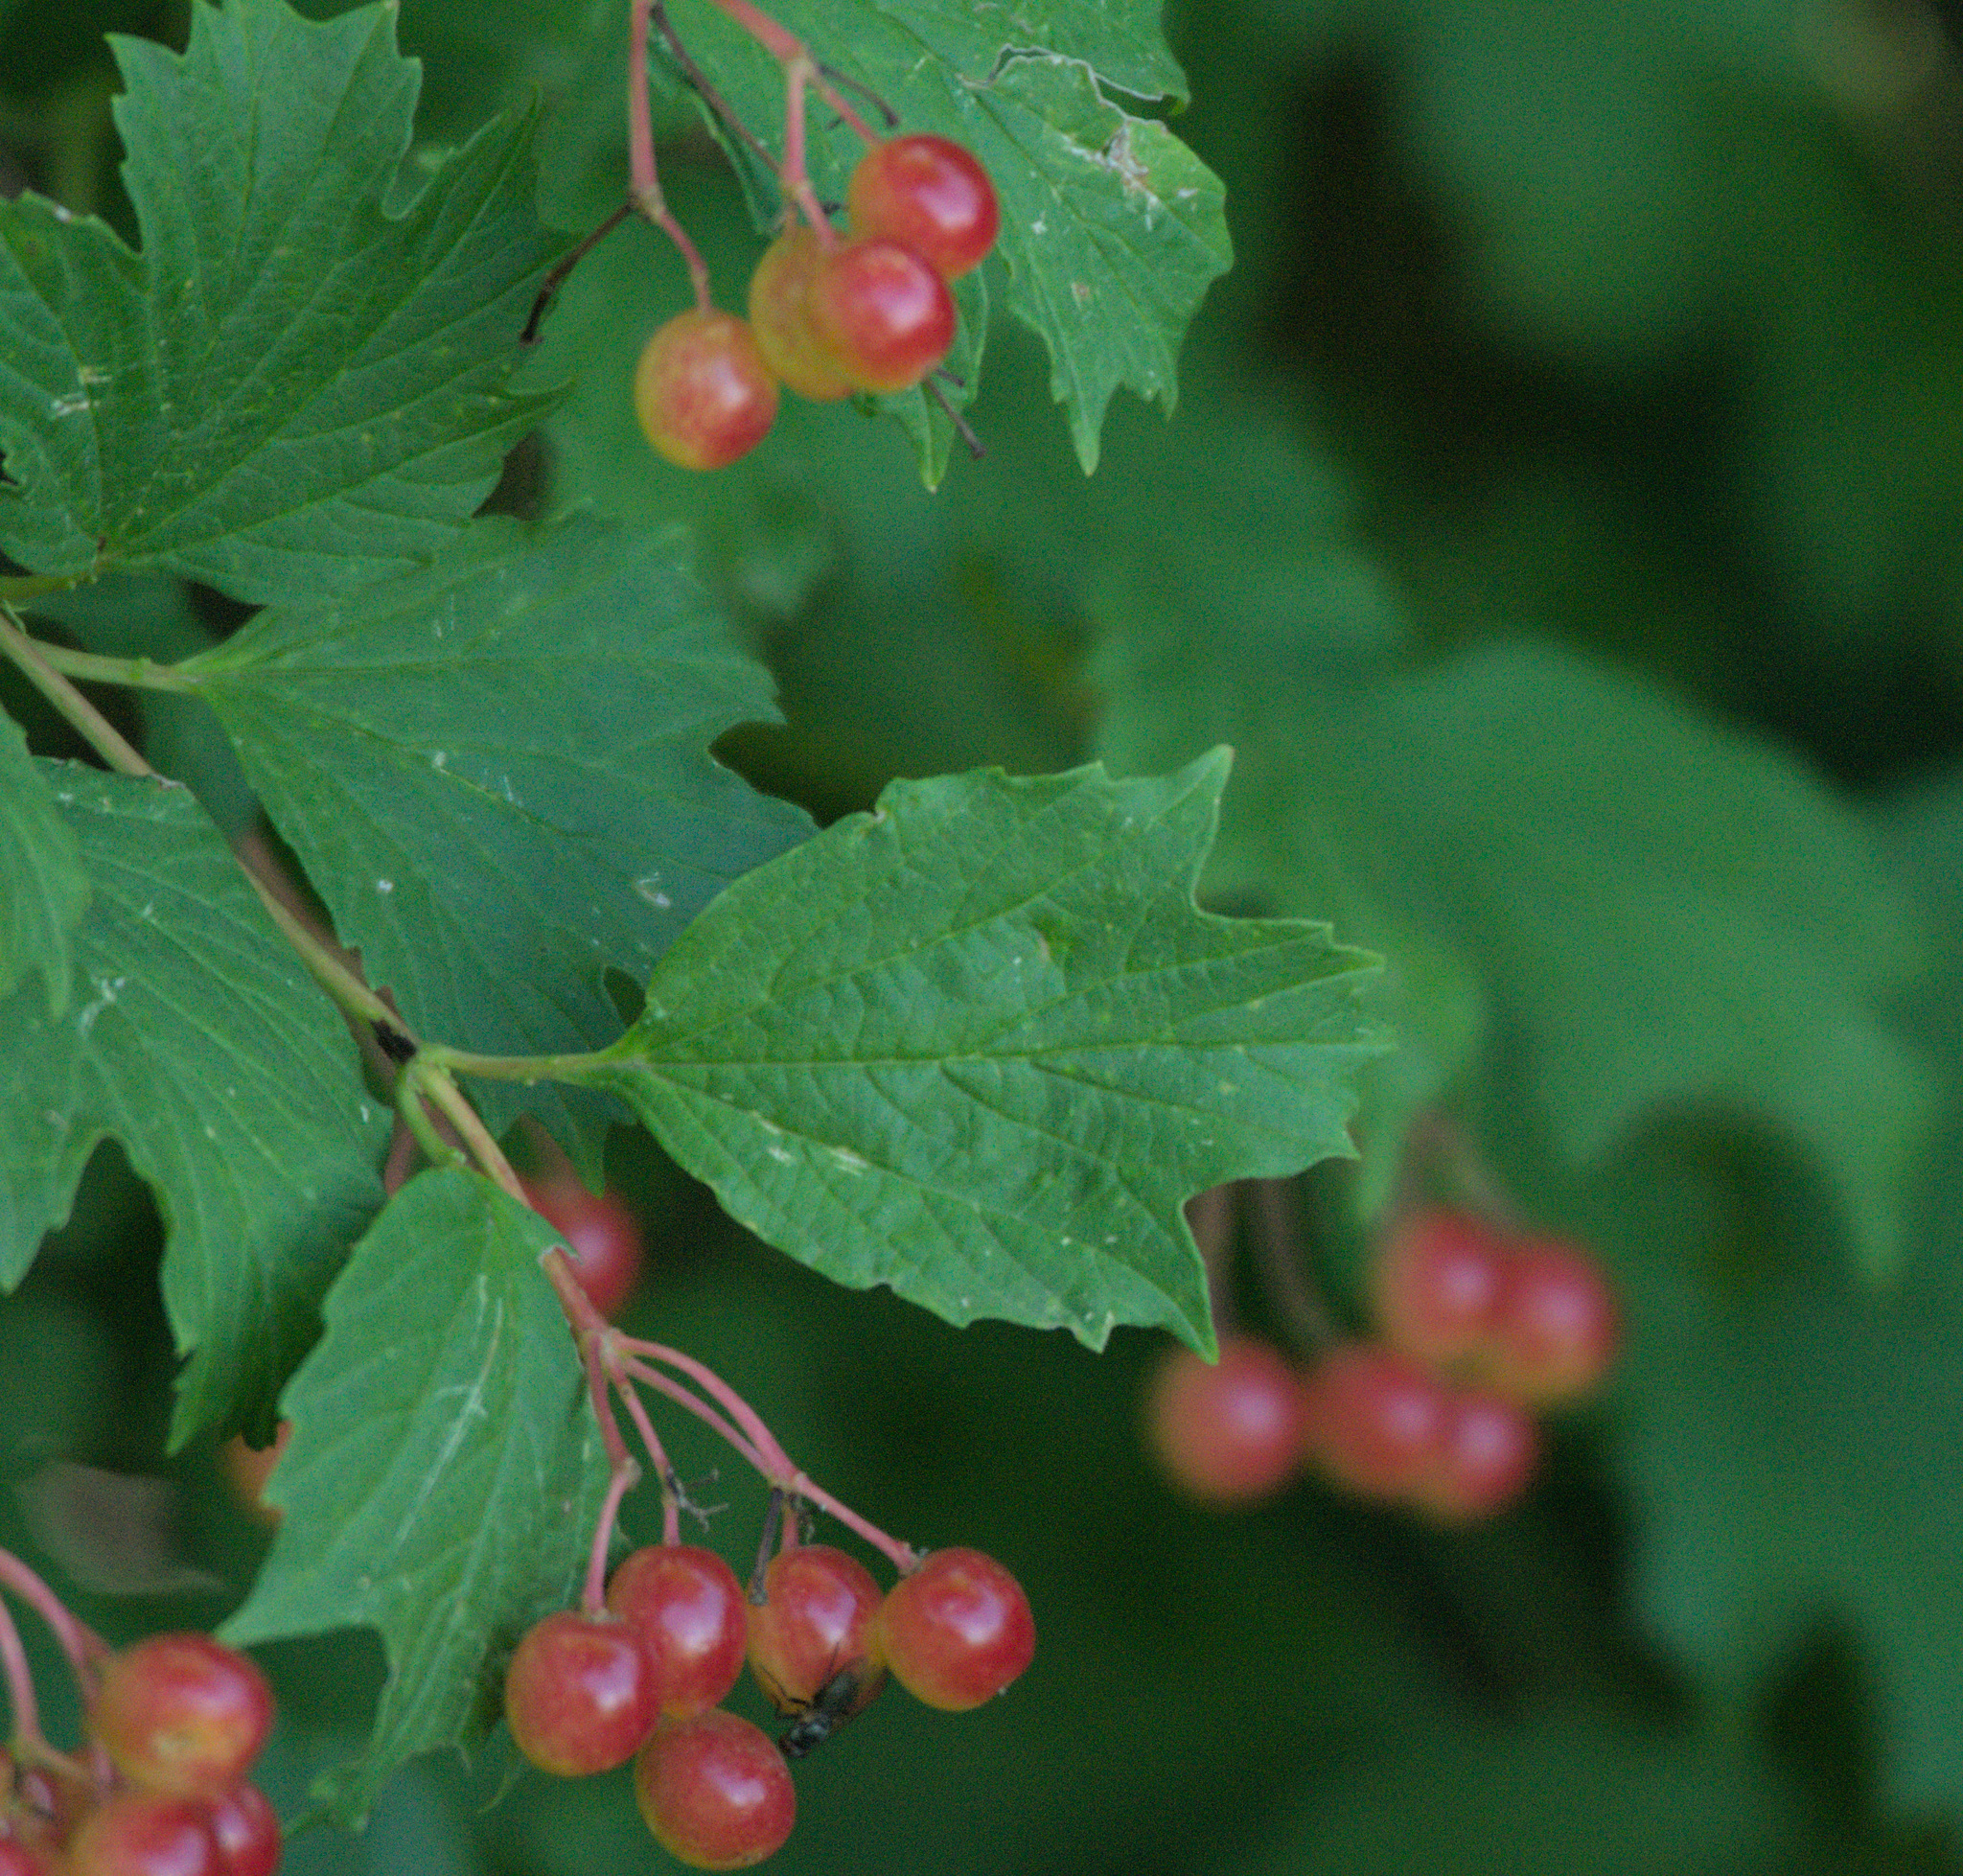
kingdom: Plantae
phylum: Tracheophyta
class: Magnoliopsida
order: Dipsacales
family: Viburnaceae
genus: Viburnum
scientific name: Viburnum opulus
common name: Guelder-rose
